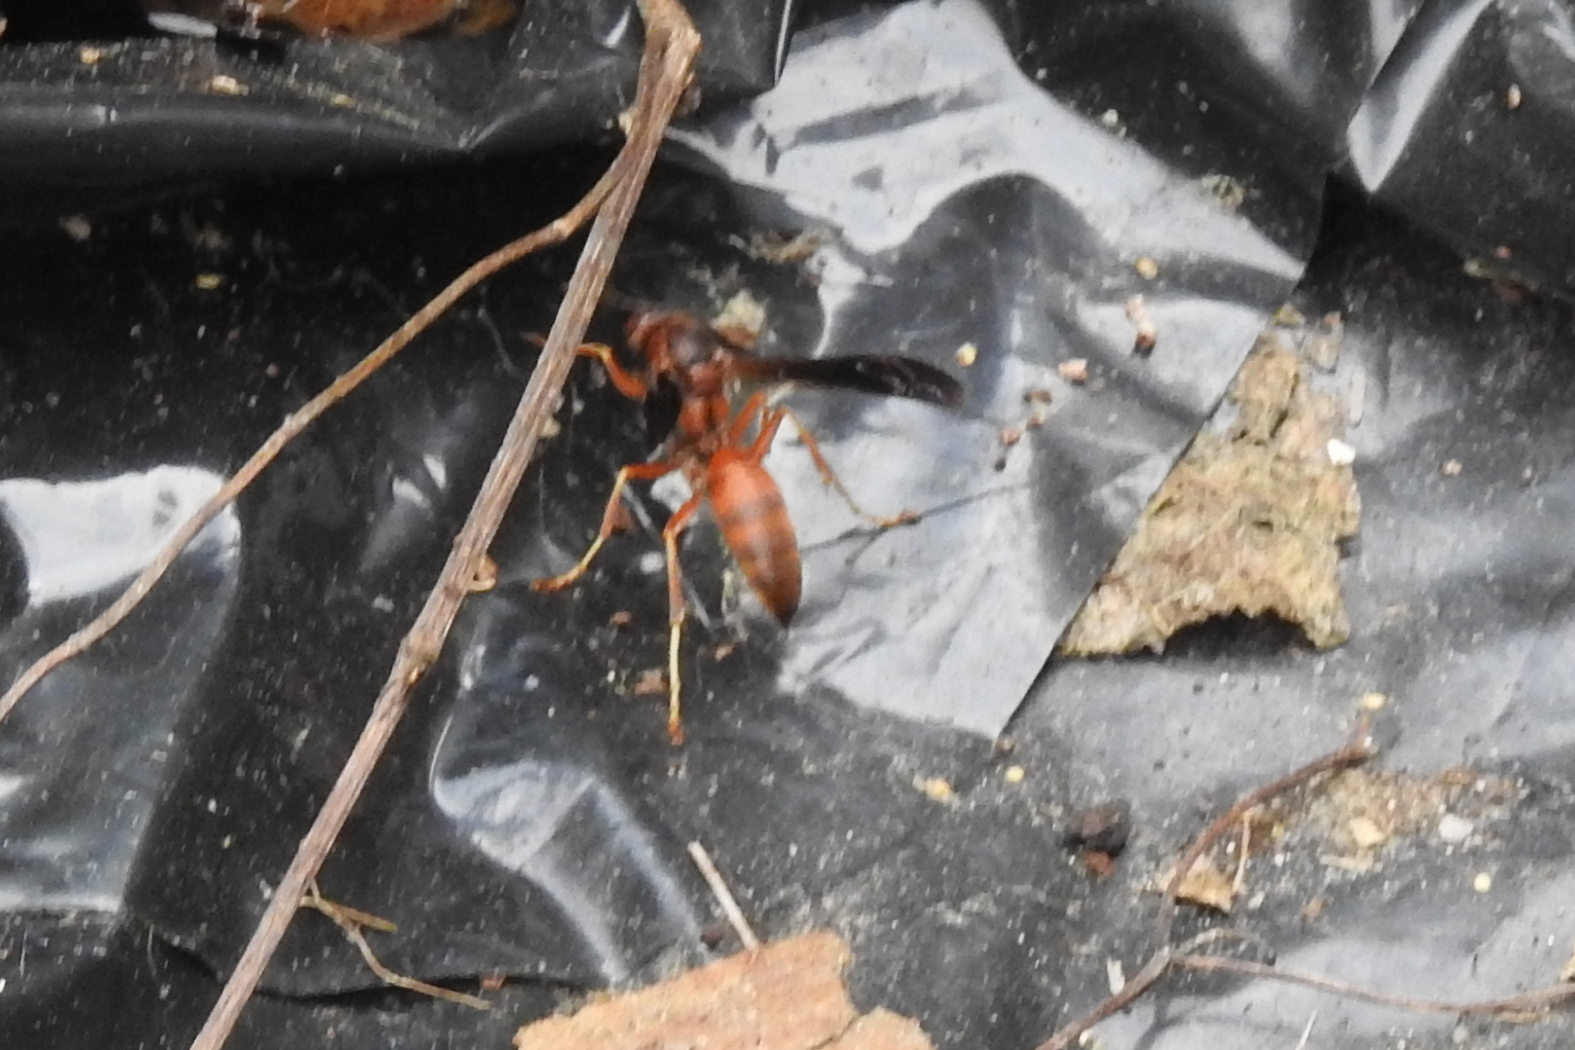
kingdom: Animalia
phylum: Arthropoda
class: Insecta
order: Hymenoptera
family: Eumenidae
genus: Polistes
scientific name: Polistes fuscatus
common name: Dark paper wasp
